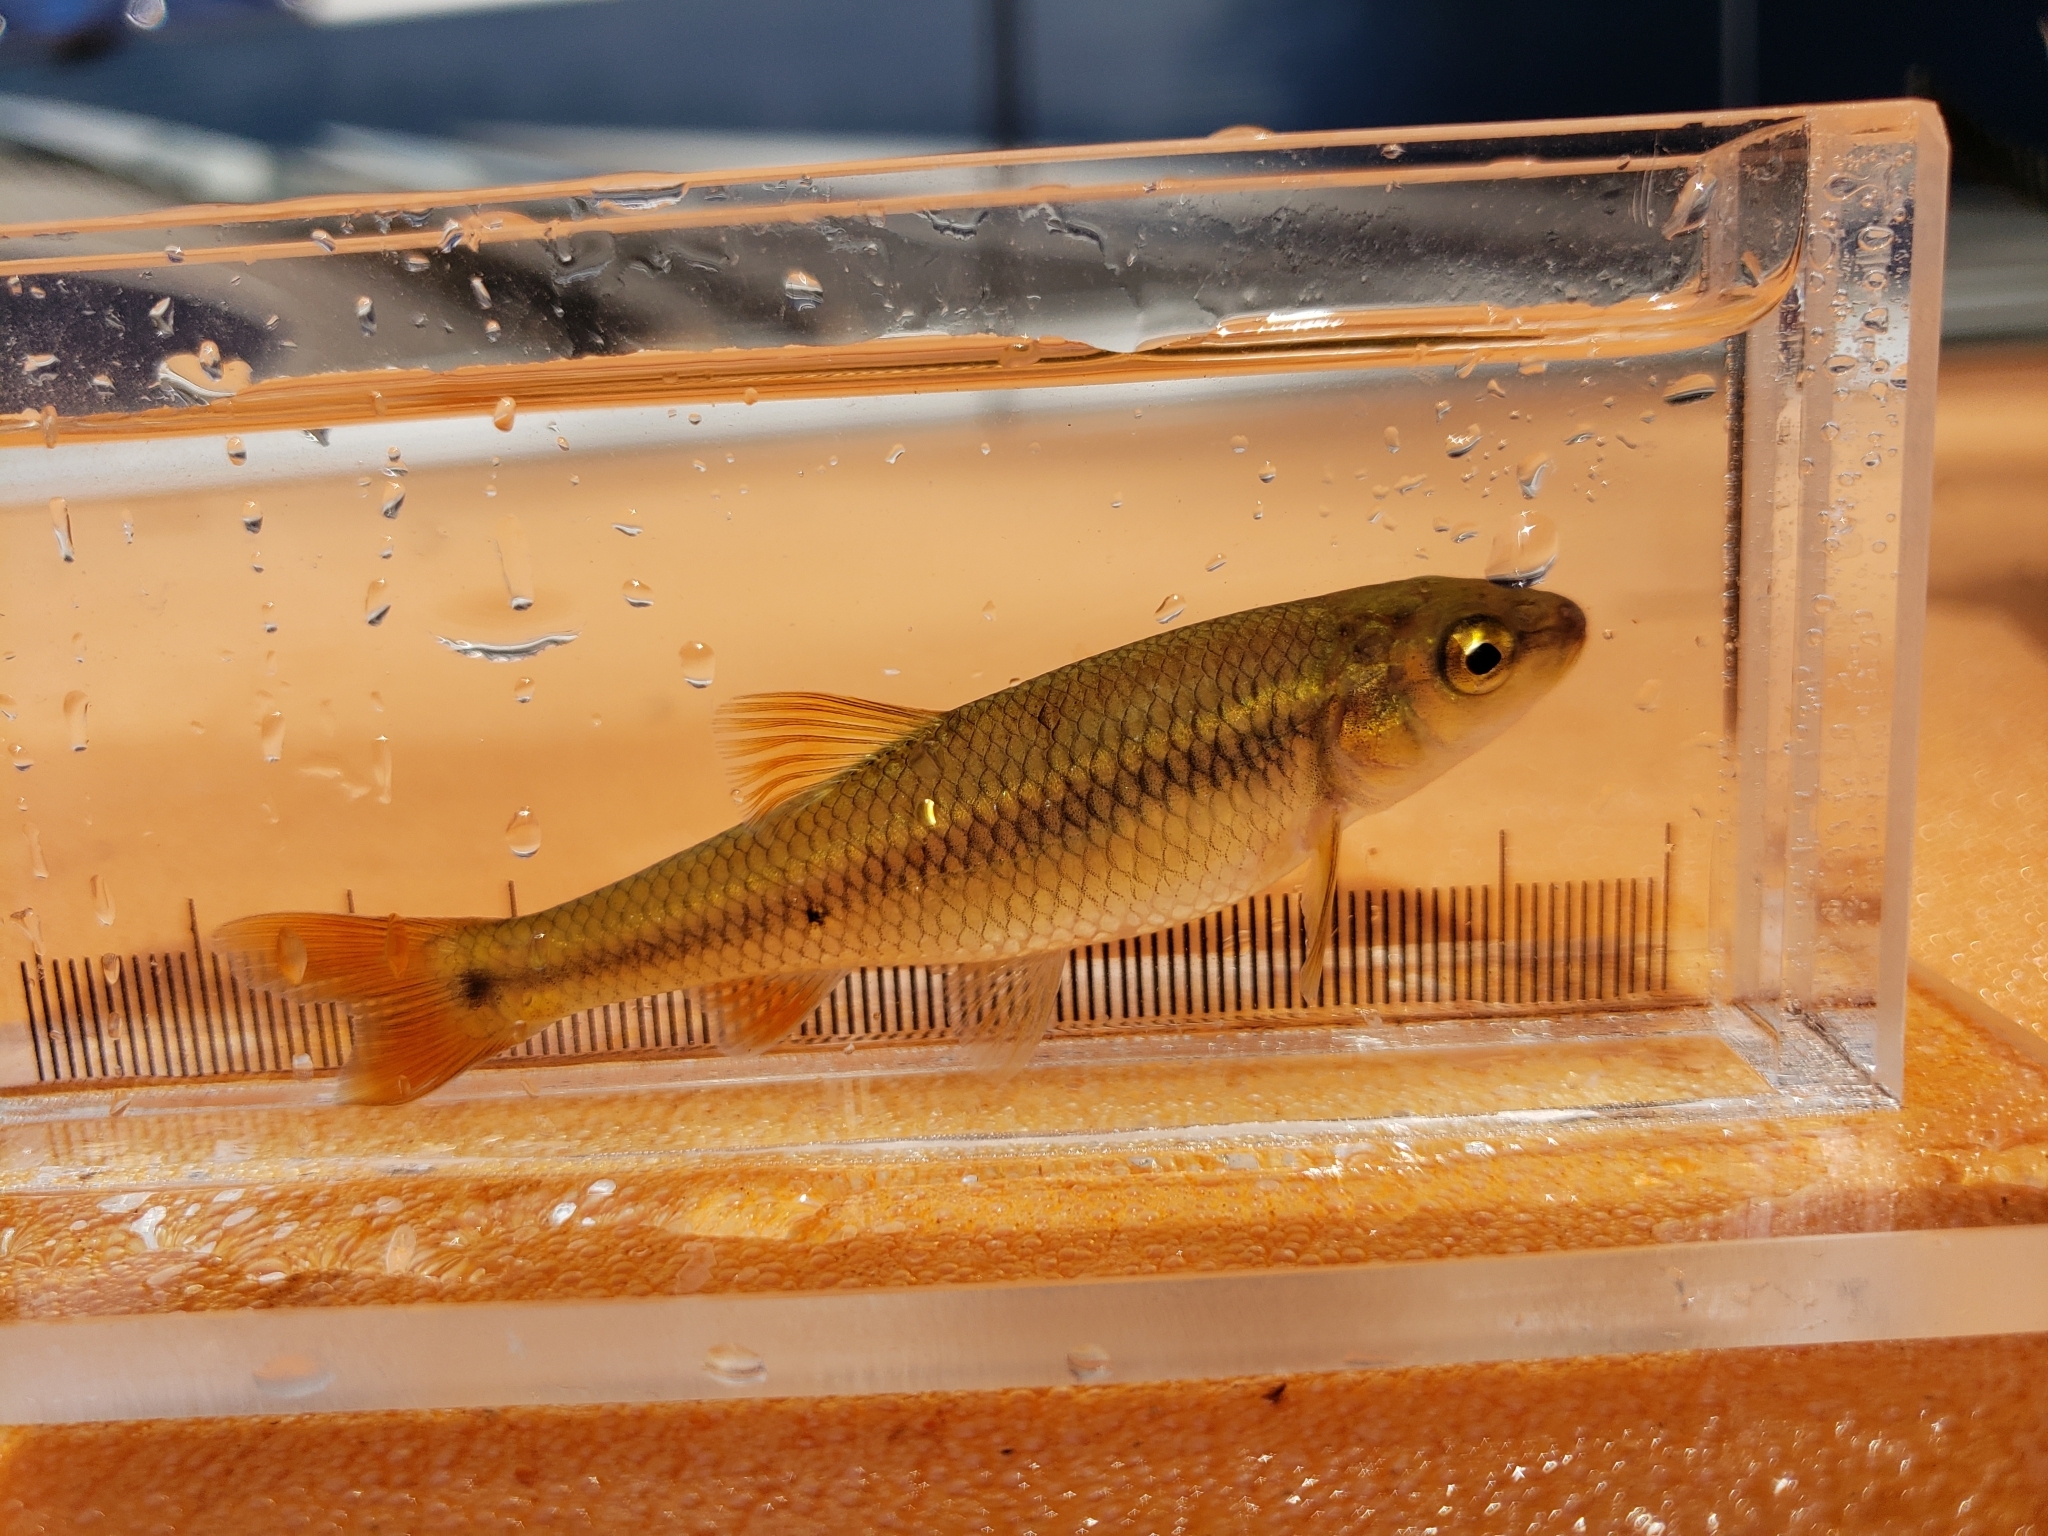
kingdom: Animalia
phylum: Chordata
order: Cypriniformes
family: Cyprinidae
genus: Nocomis
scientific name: Nocomis biguttatus
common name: Hornyhead chub
